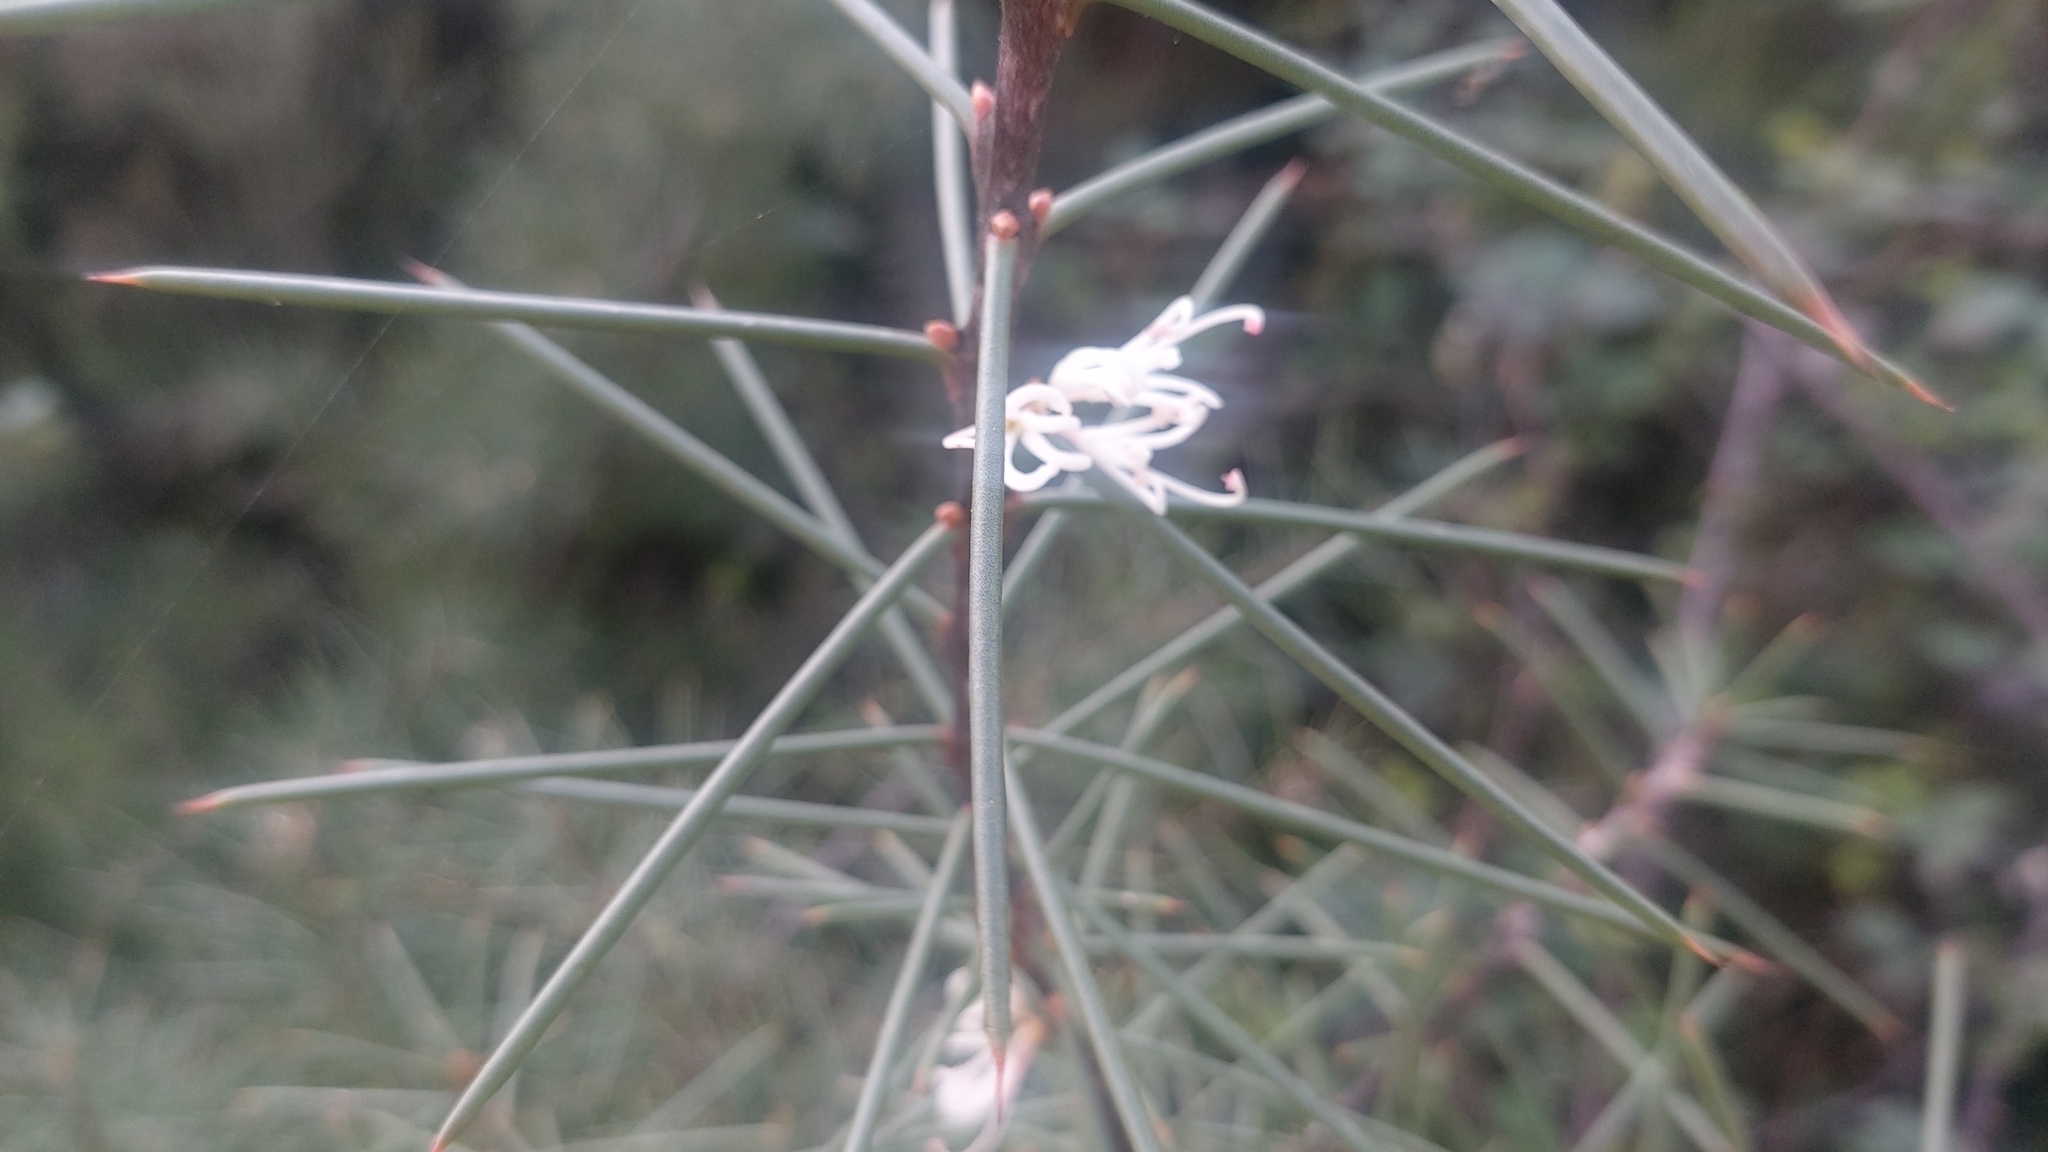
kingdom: Plantae
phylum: Tracheophyta
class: Magnoliopsida
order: Proteales
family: Proteaceae
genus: Hakea
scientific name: Hakea decurrens
